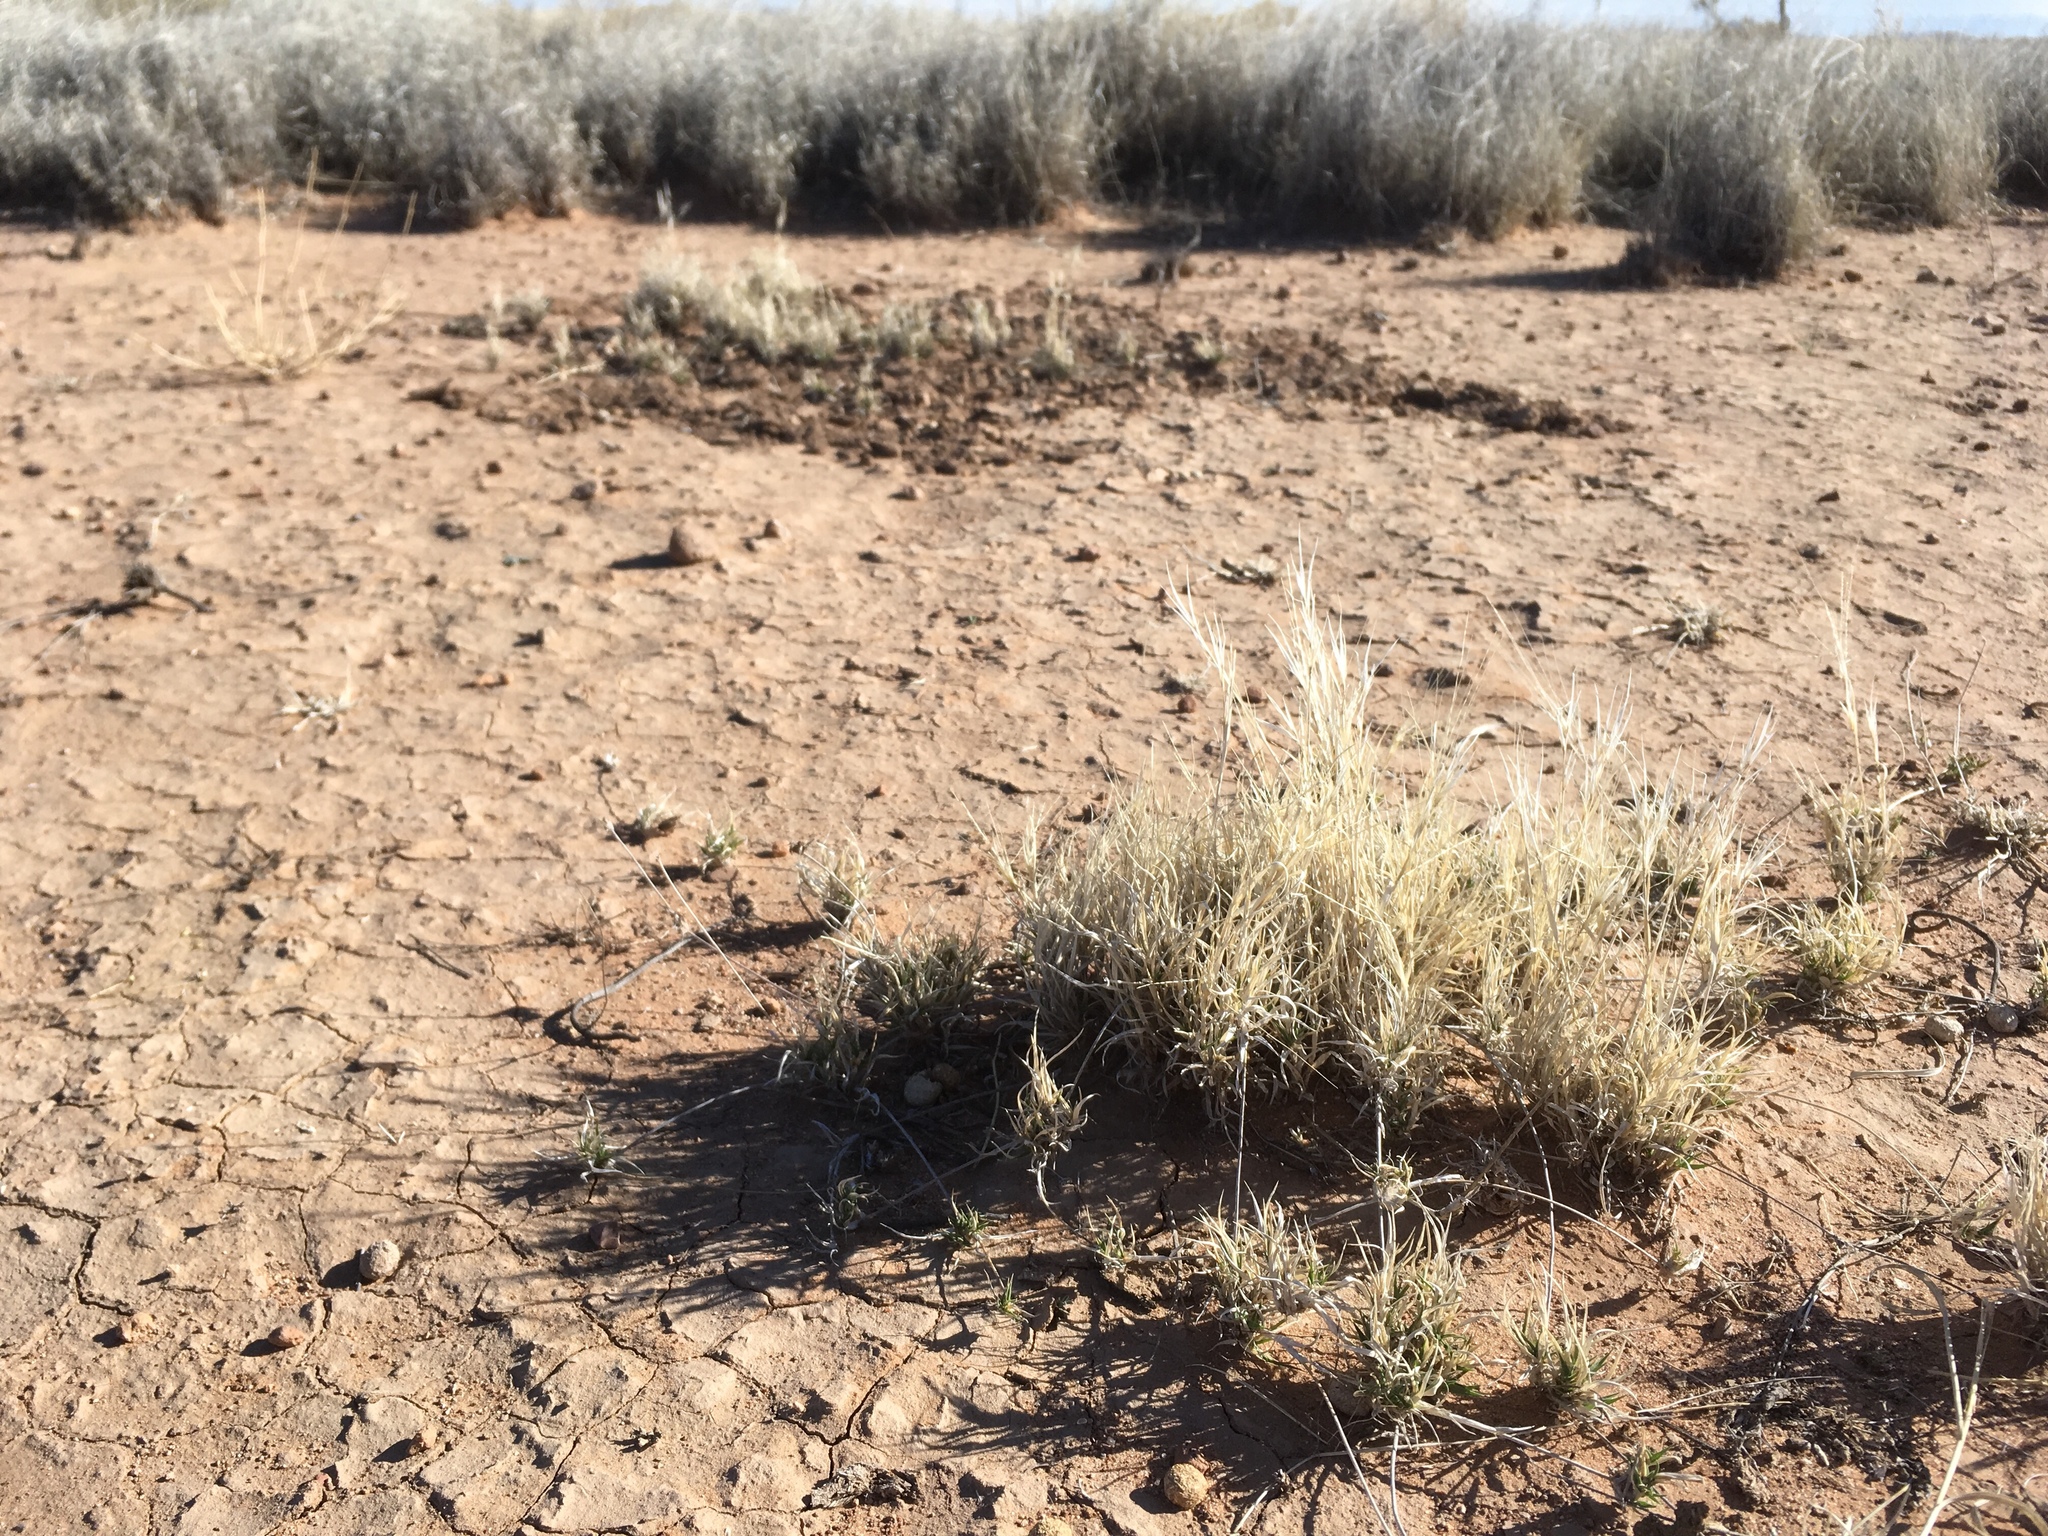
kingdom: Plantae
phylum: Tracheophyta
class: Liliopsida
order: Poales
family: Poaceae
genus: Scleropogon
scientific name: Scleropogon brevifolius
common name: Burro grass
